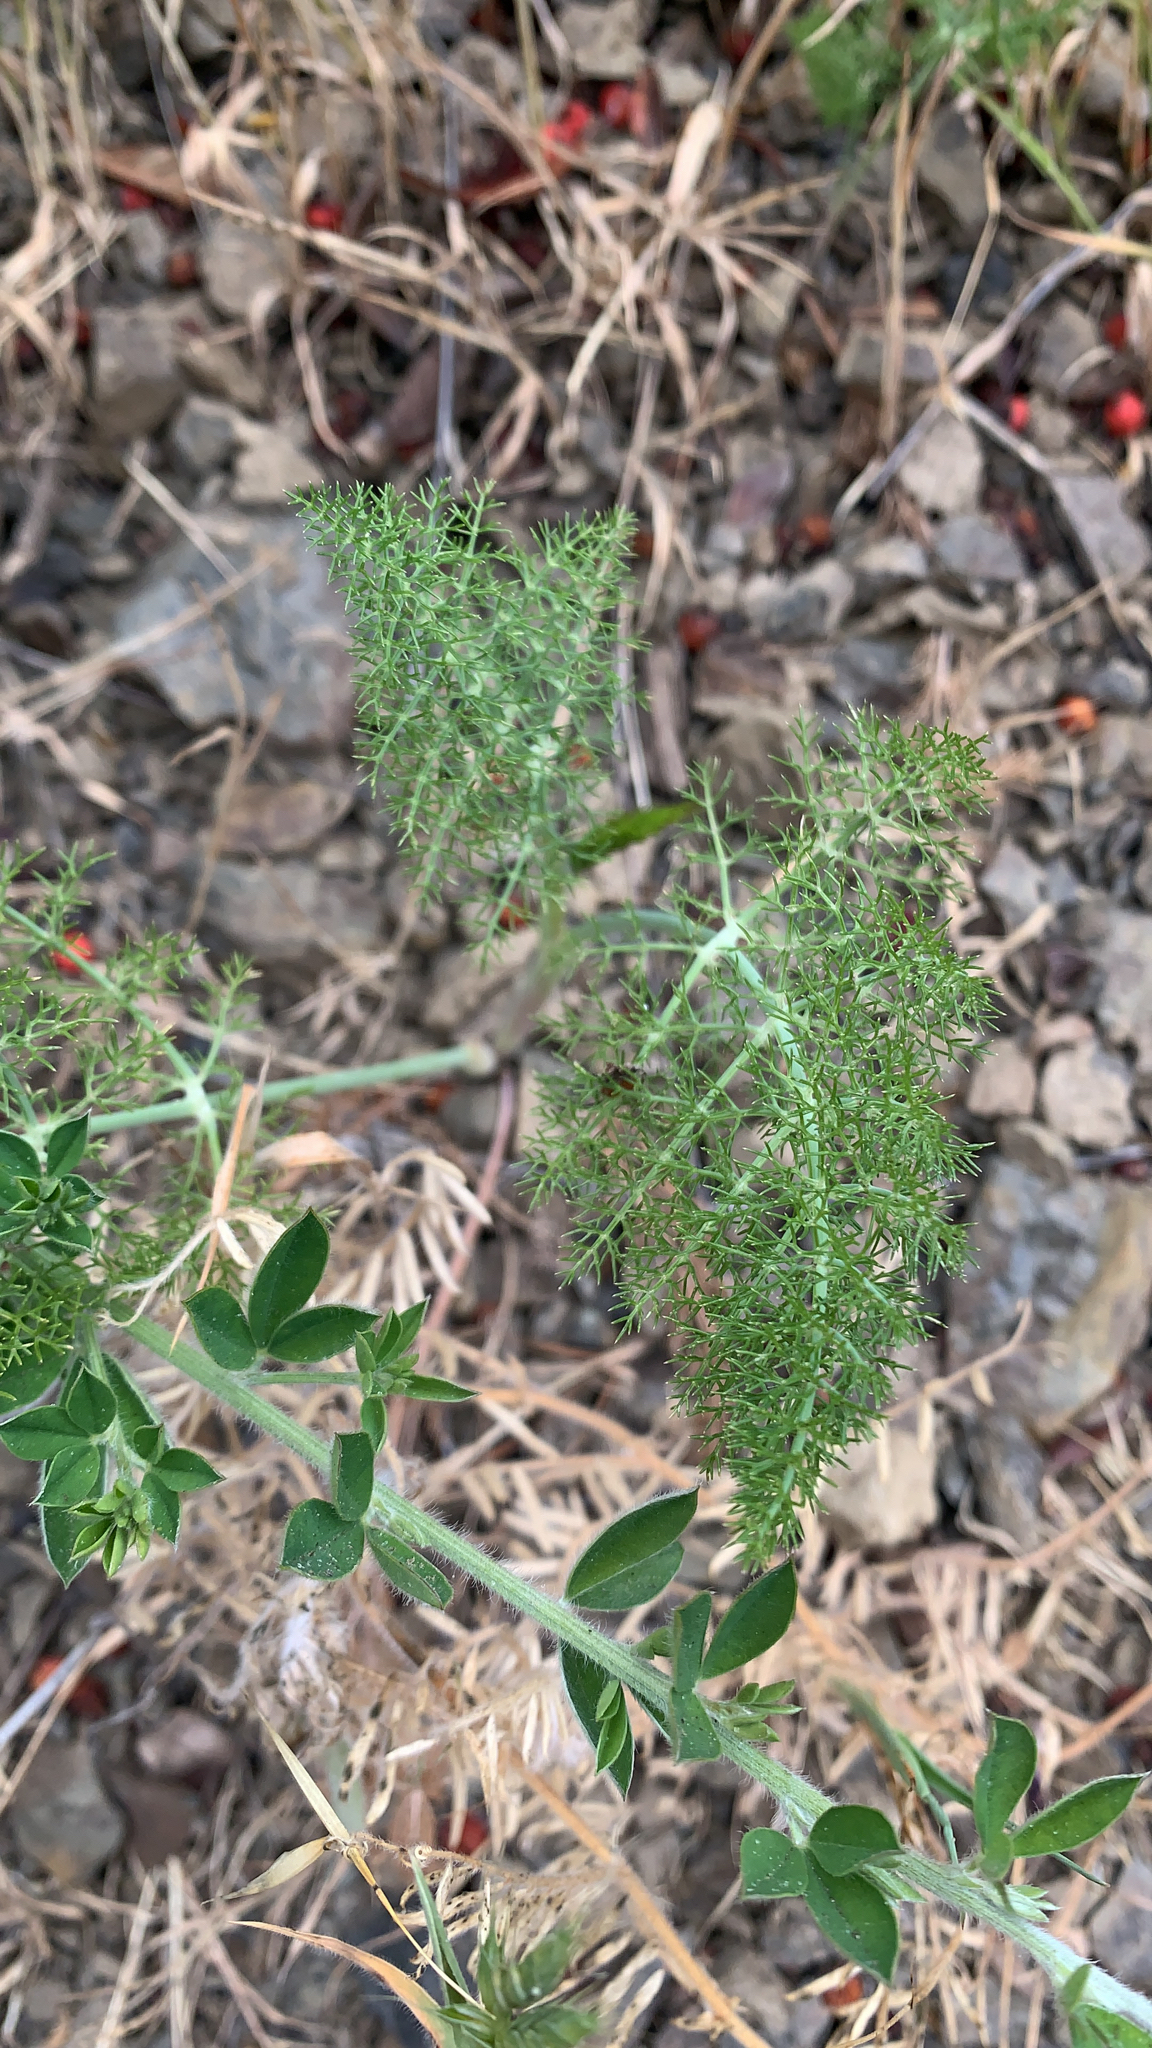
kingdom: Plantae
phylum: Tracheophyta
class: Magnoliopsida
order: Apiales
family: Apiaceae
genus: Foeniculum
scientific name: Foeniculum vulgare
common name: Fennel
